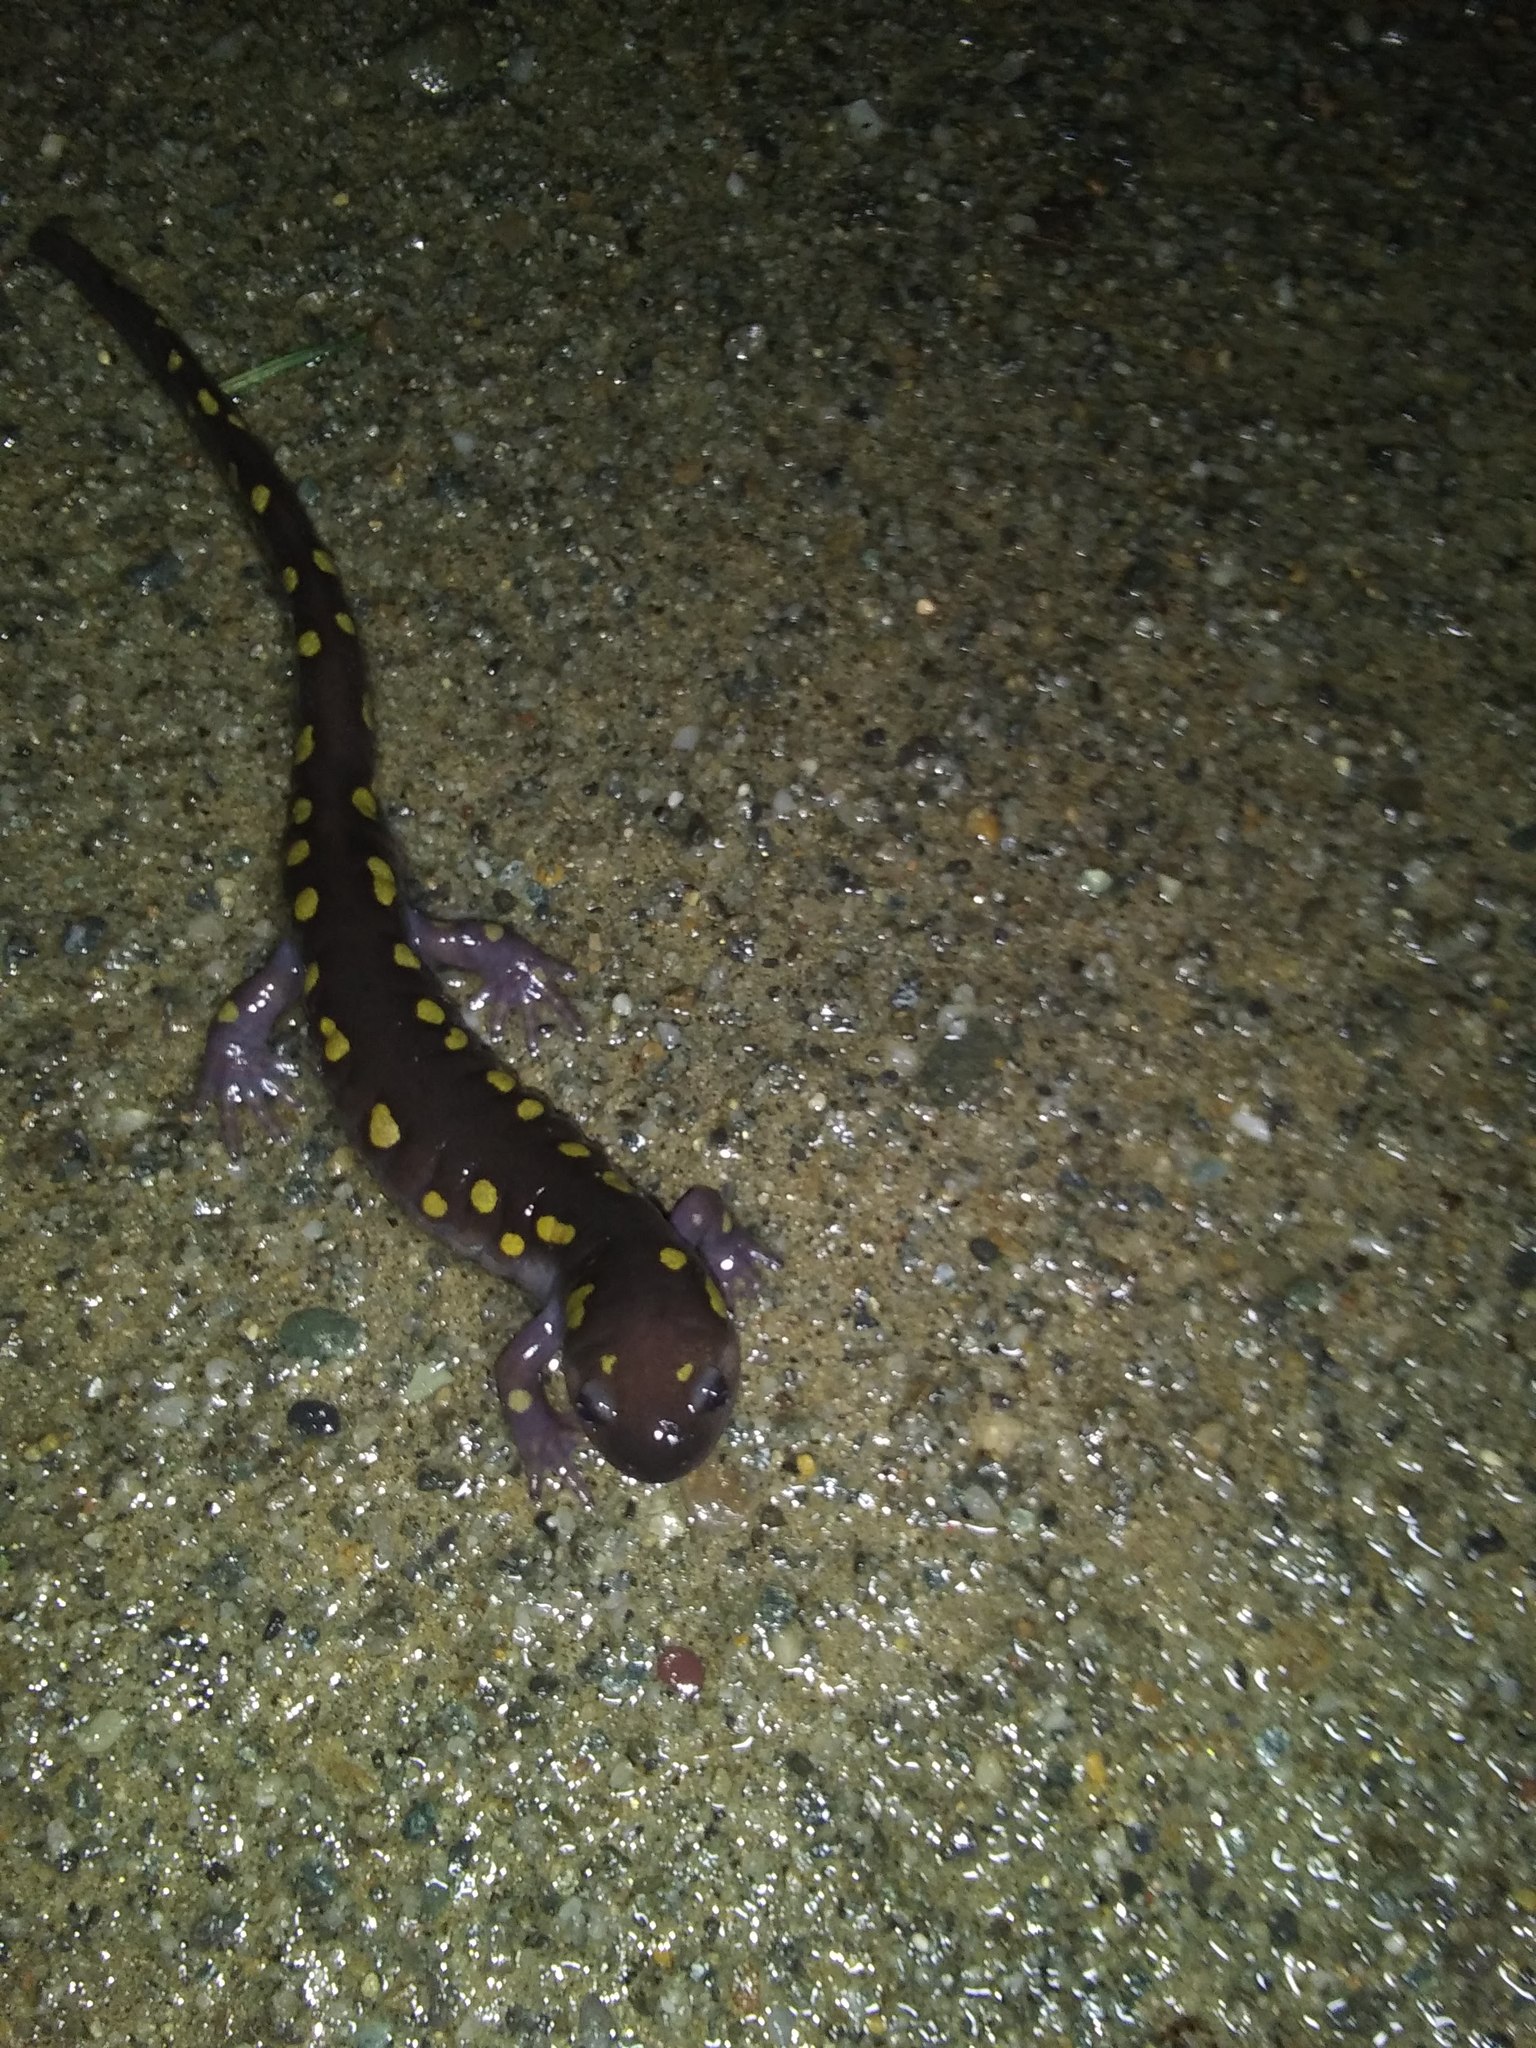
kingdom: Animalia
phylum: Chordata
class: Amphibia
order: Caudata
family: Ambystomatidae
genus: Ambystoma
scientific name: Ambystoma maculatum
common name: Spotted salamander
